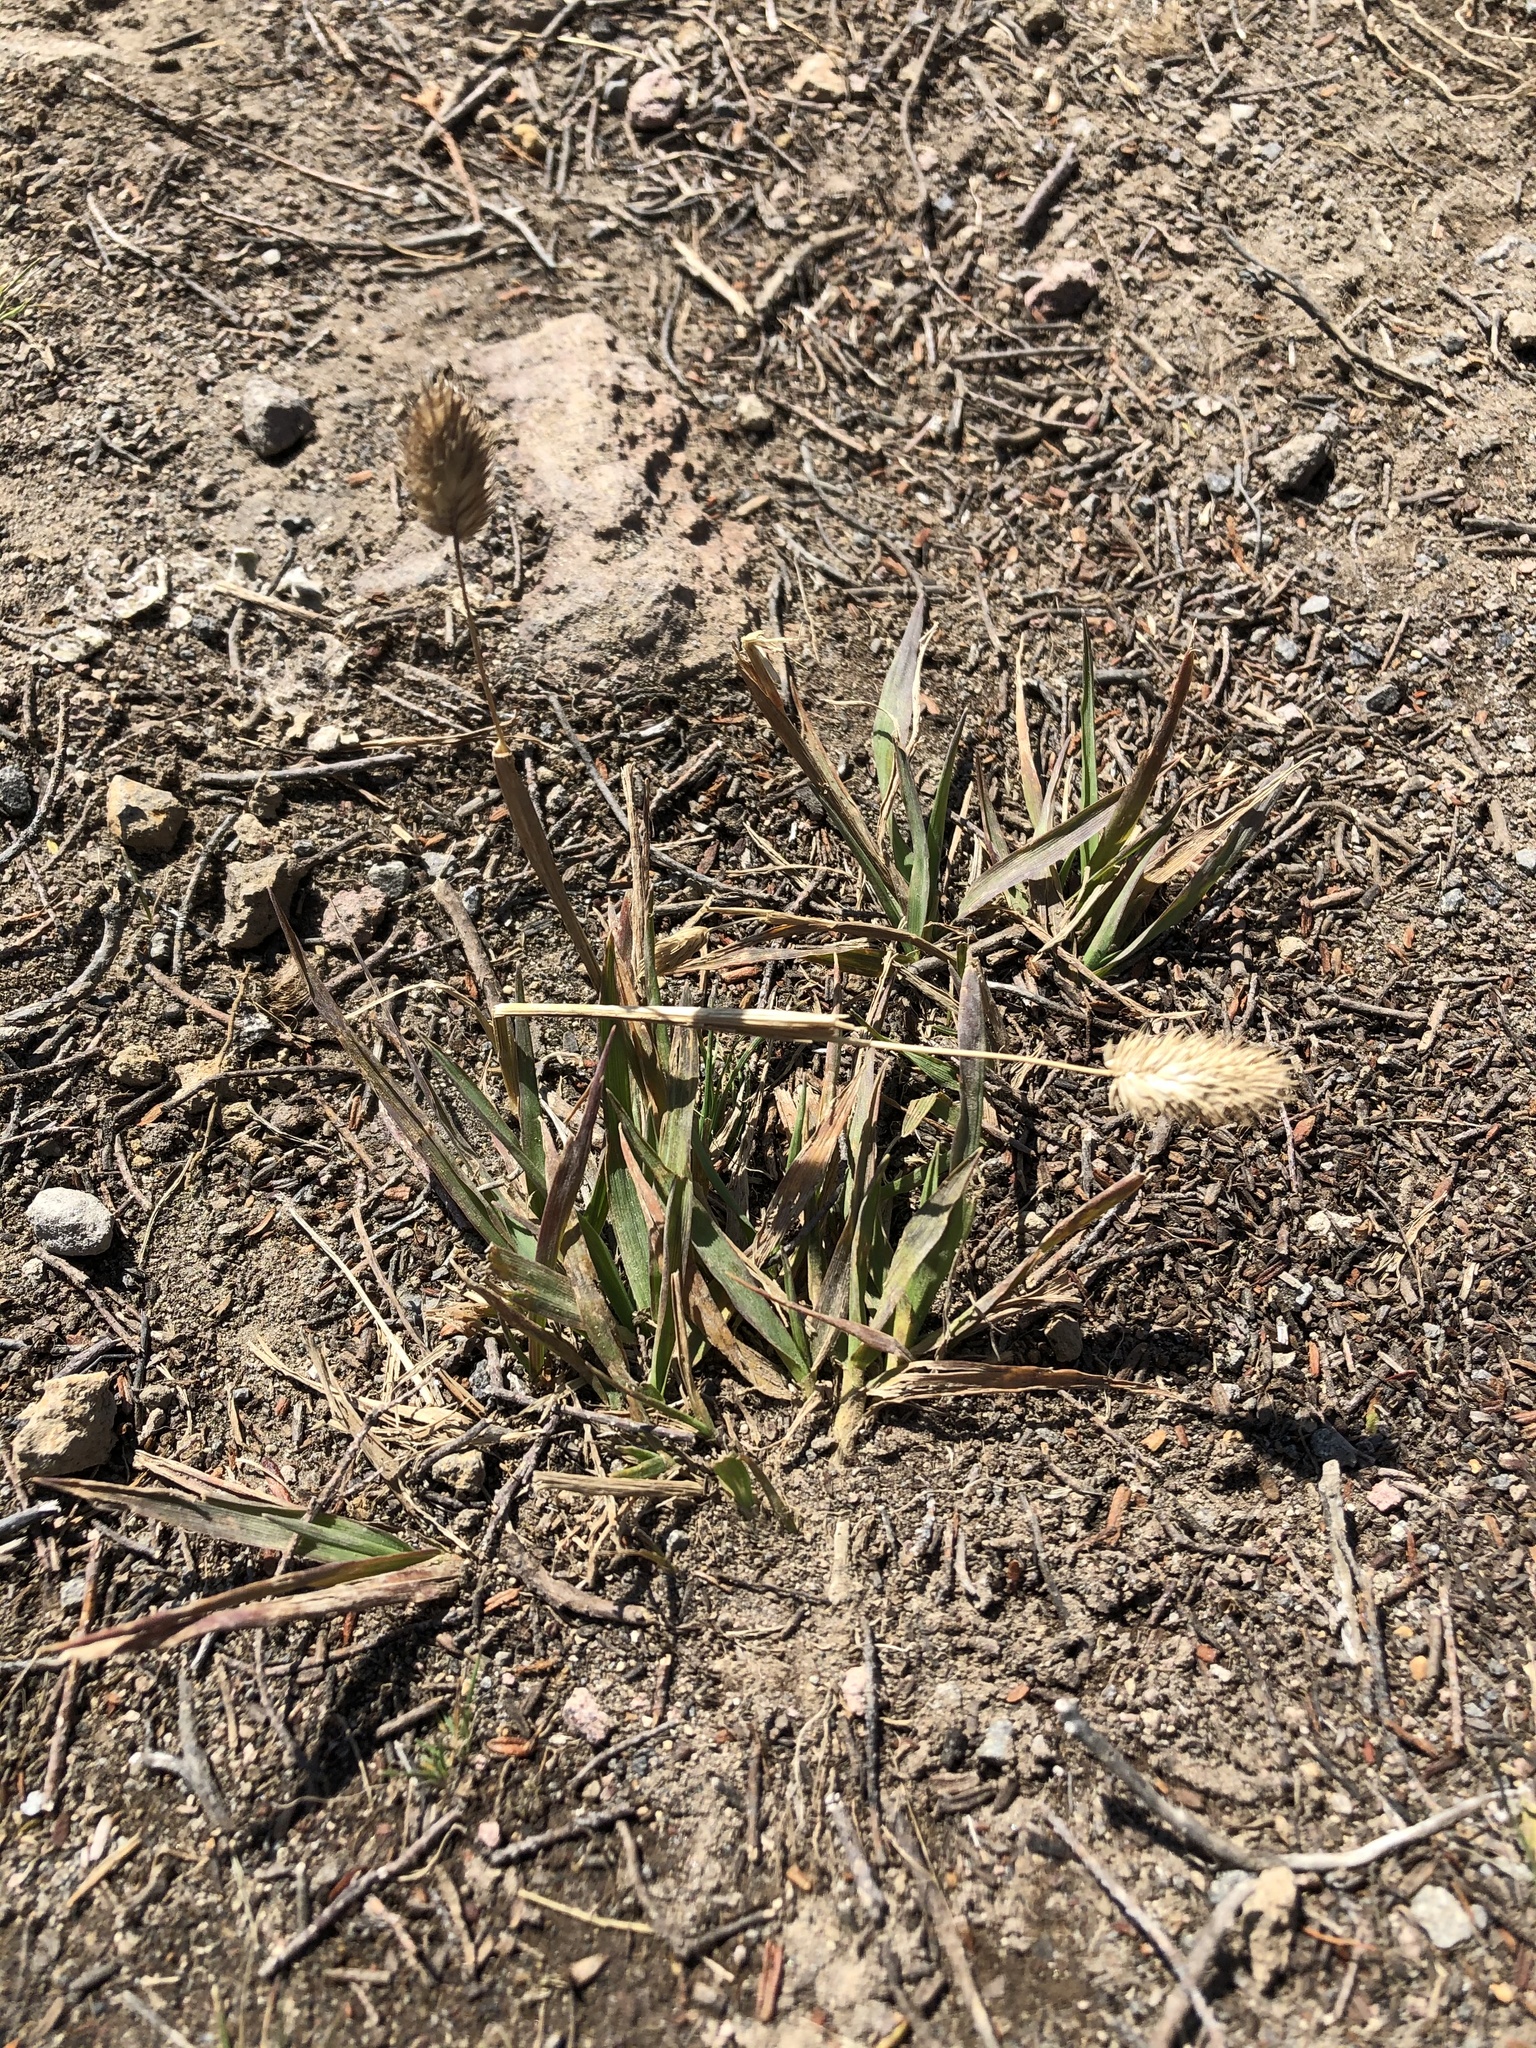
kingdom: Plantae
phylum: Tracheophyta
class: Liliopsida
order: Poales
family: Poaceae
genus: Phleum
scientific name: Phleum alpinum
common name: Alpine cat's-tail
